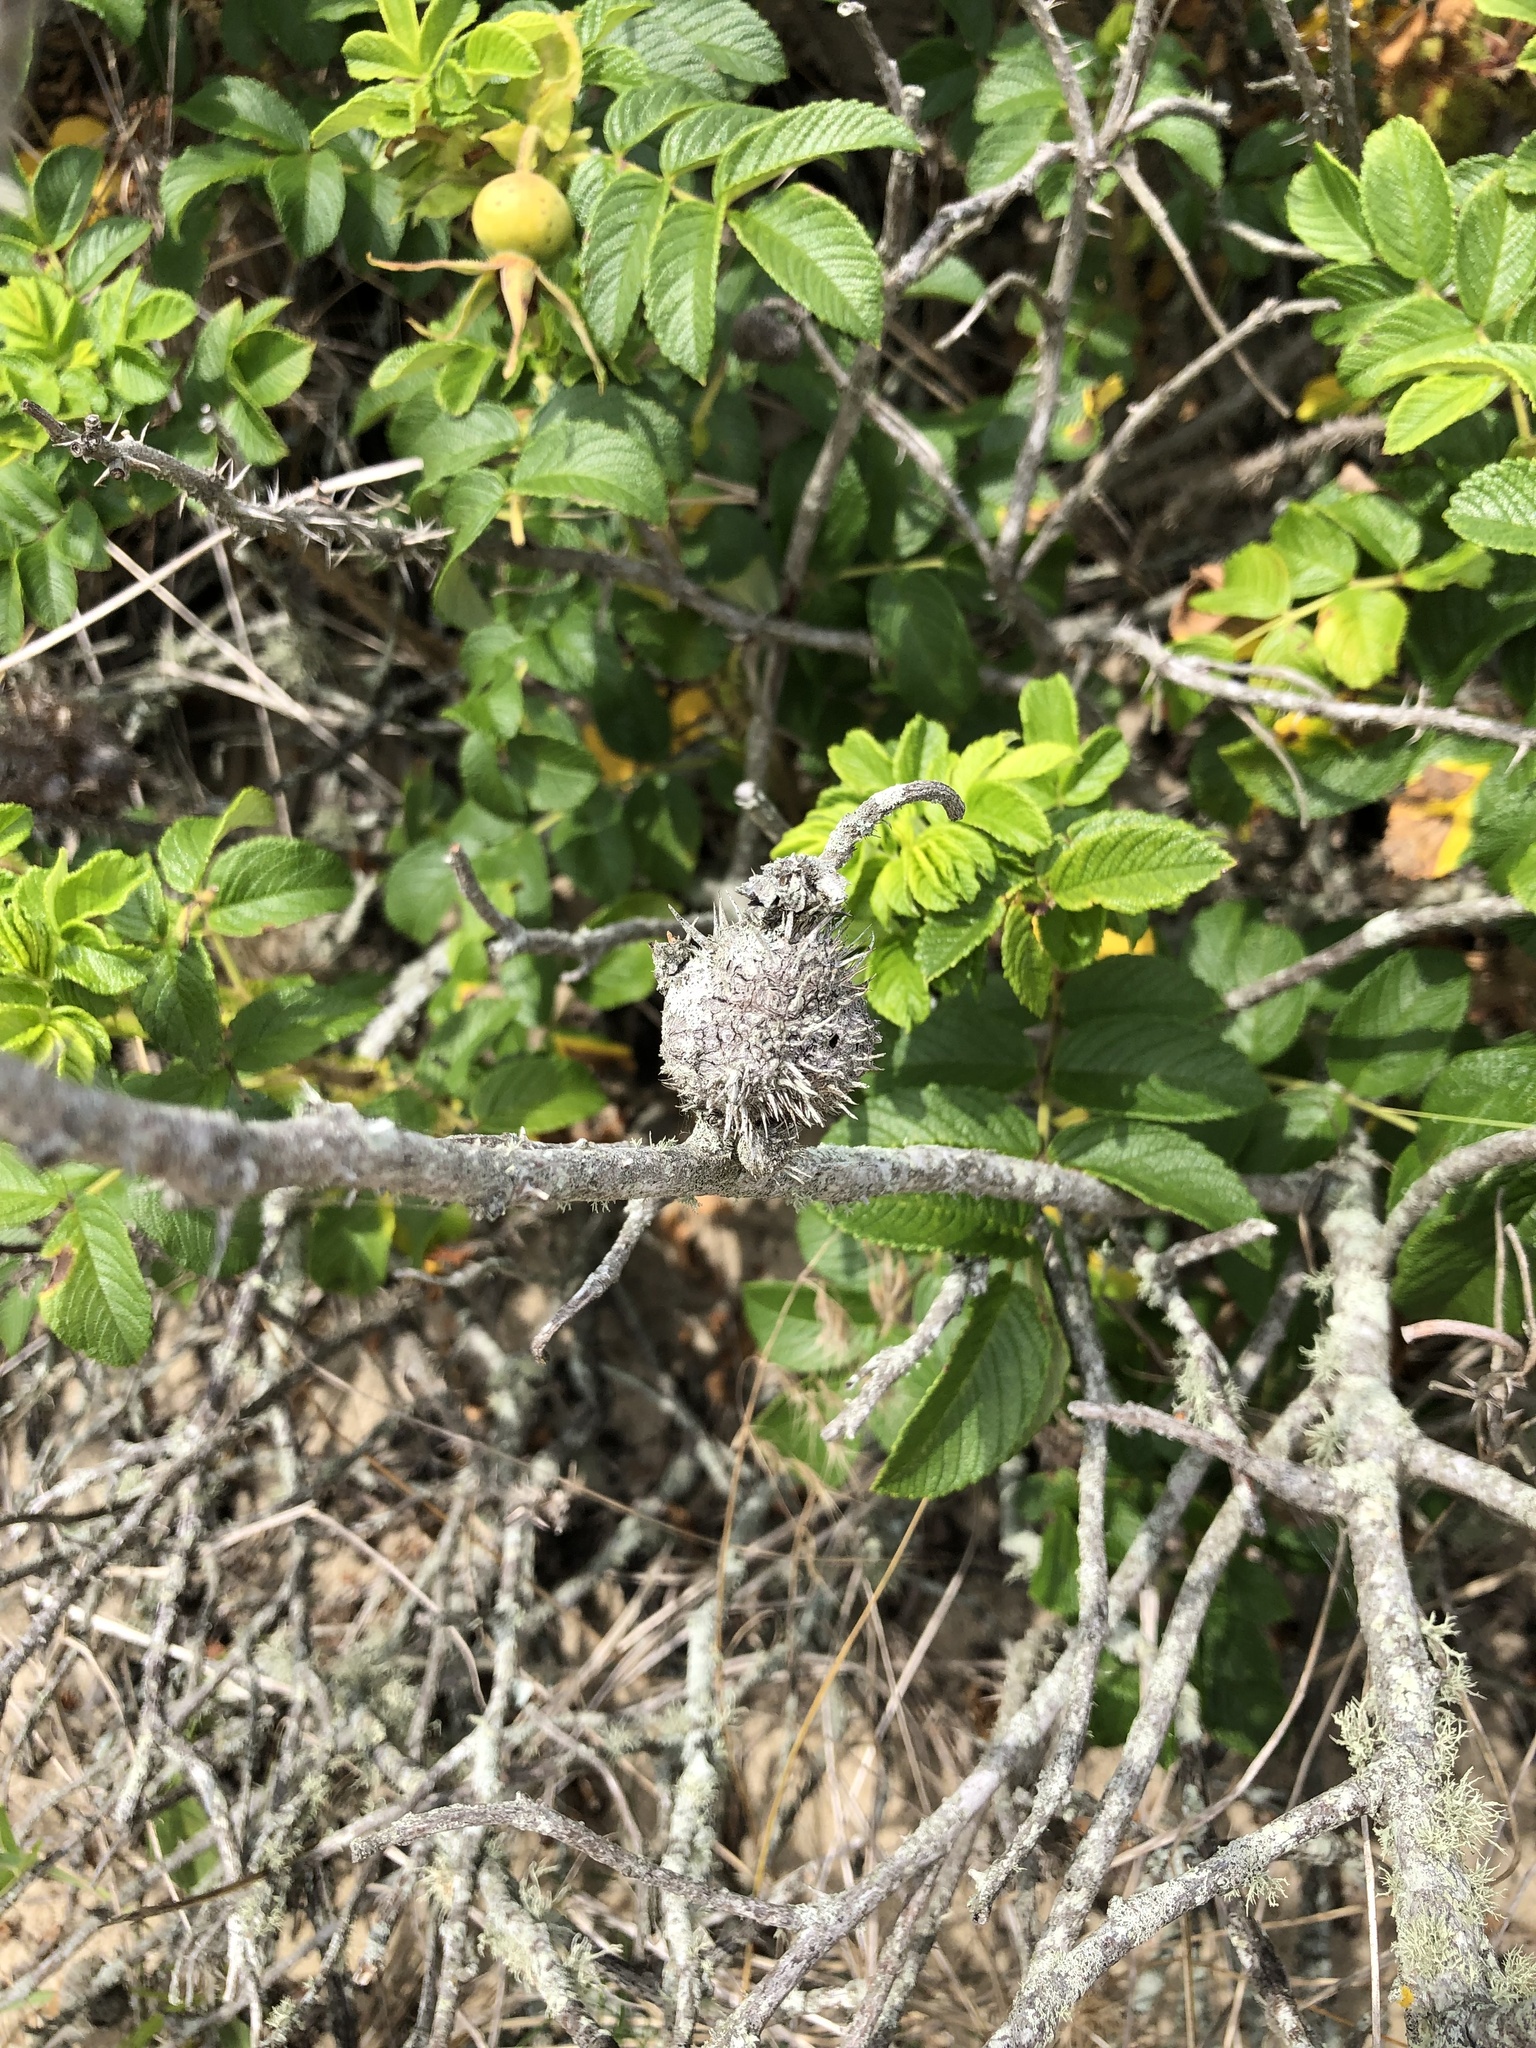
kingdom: Animalia
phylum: Arthropoda
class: Insecta
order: Hymenoptera
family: Cynipidae
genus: Diplolepis
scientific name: Diplolepis spinosa
